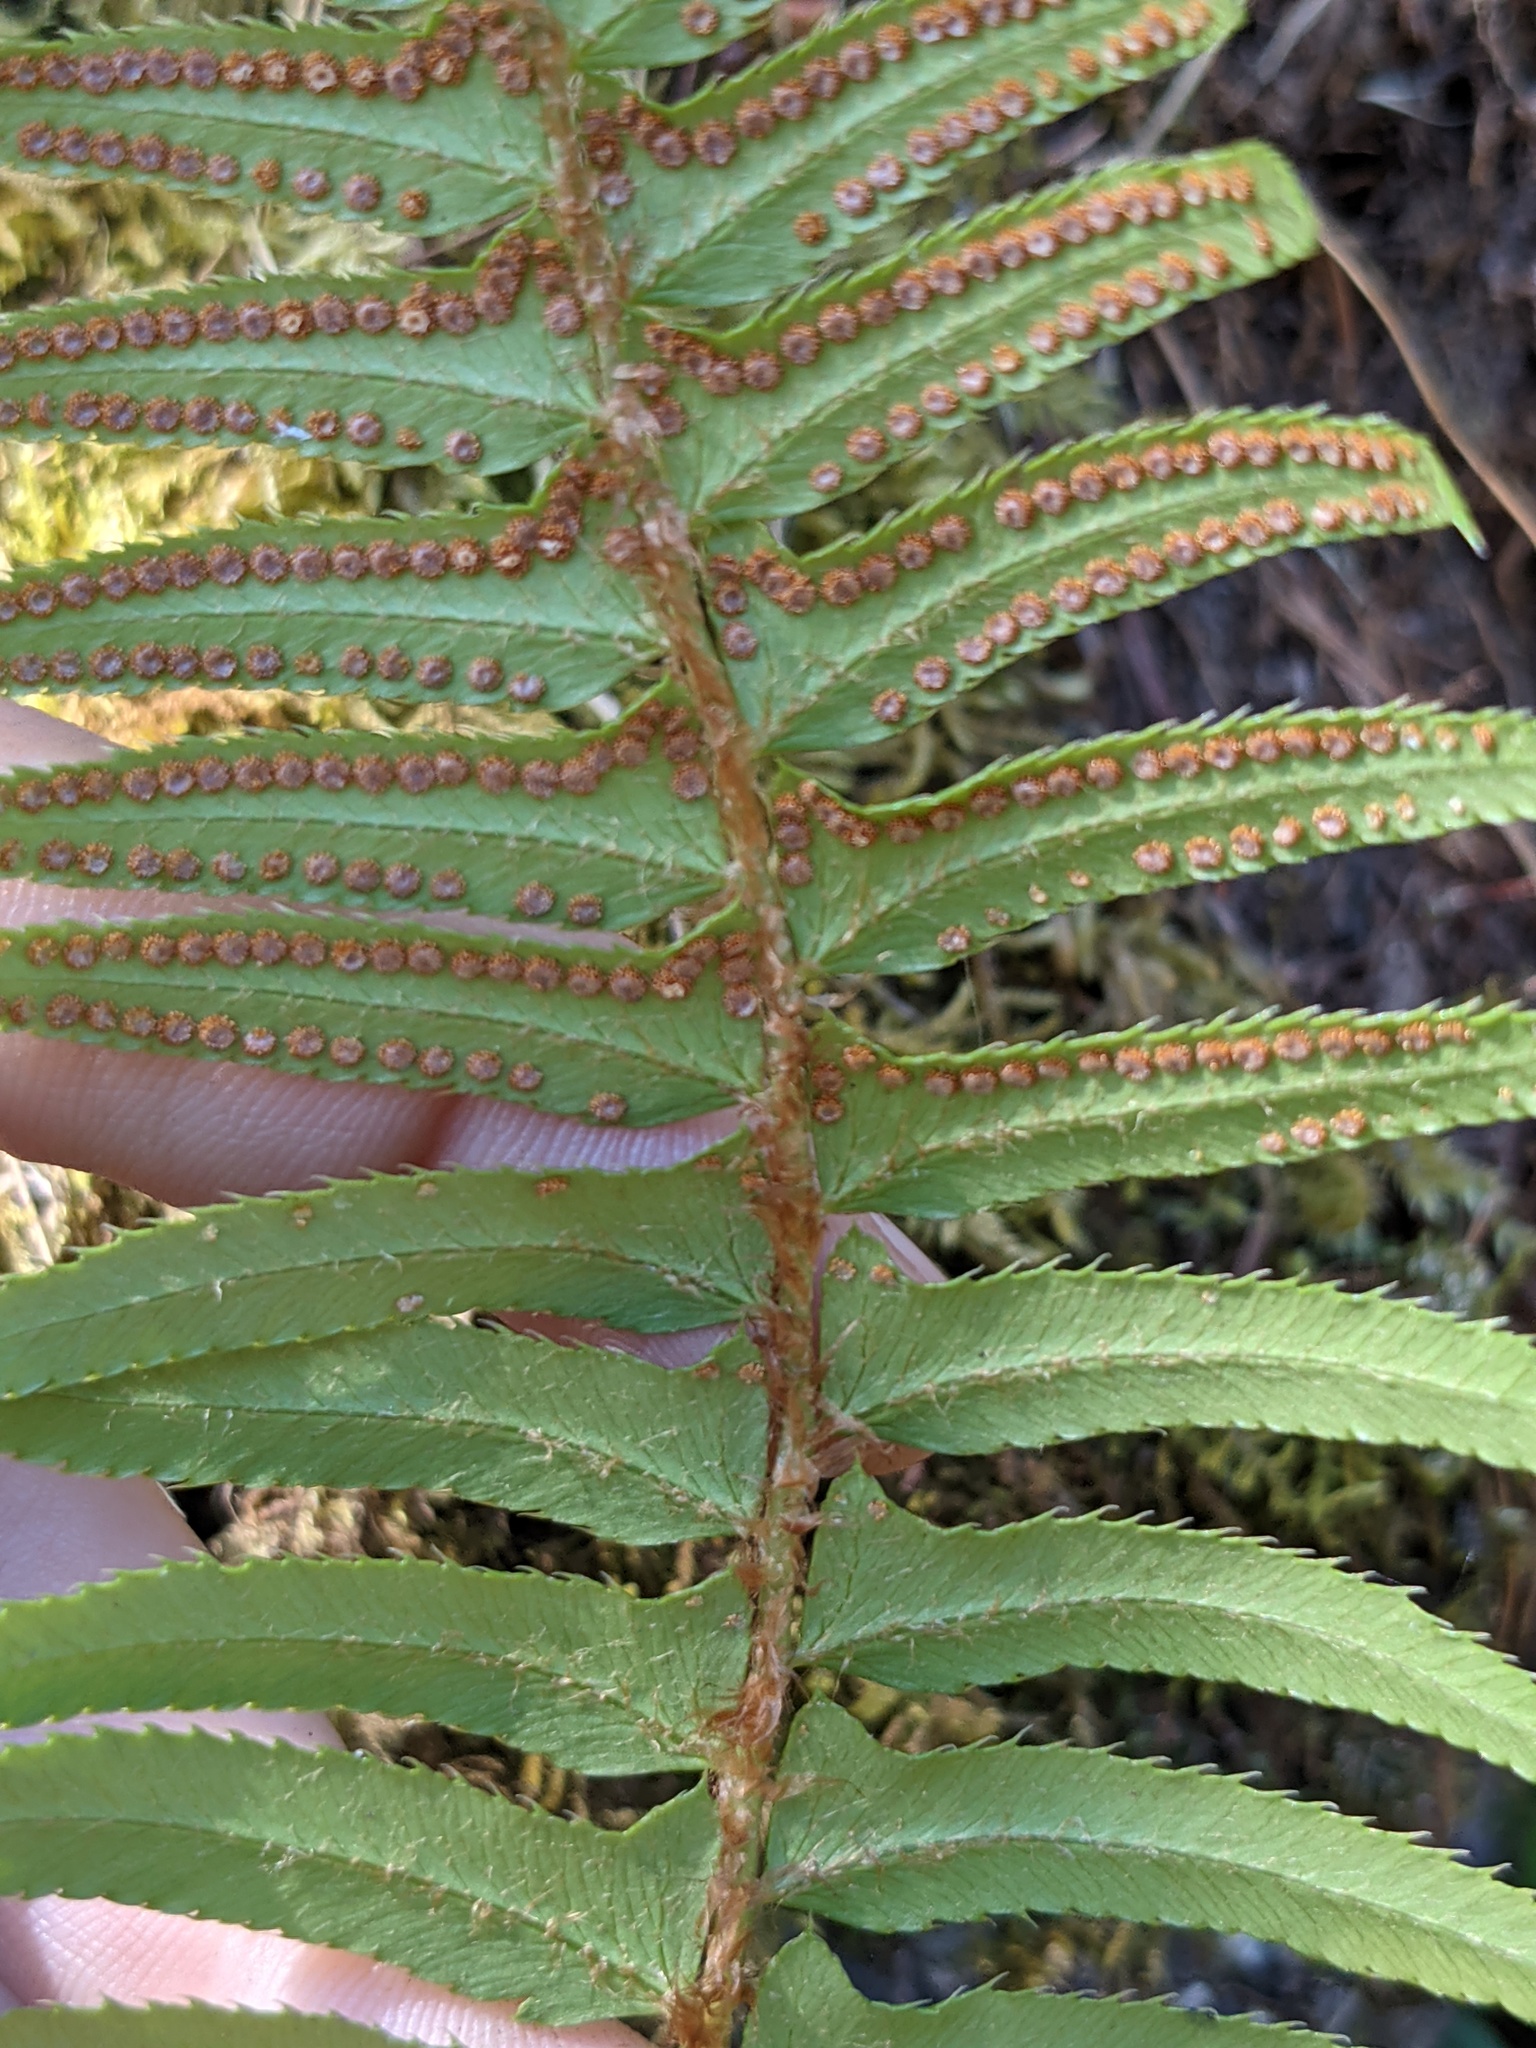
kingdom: Plantae
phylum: Tracheophyta
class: Polypodiopsida
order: Polypodiales
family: Dryopteridaceae
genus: Polystichum
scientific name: Polystichum munitum
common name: Western sword-fern
